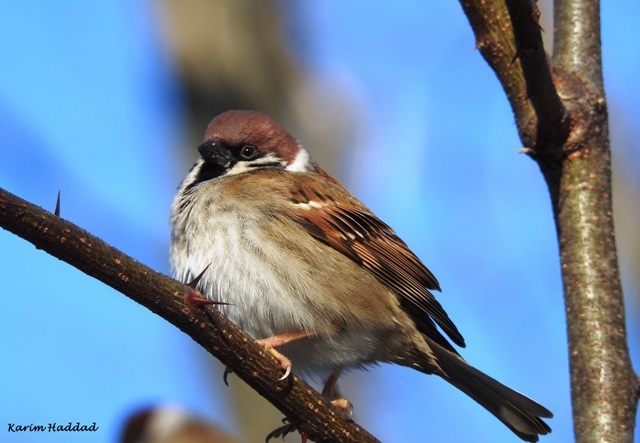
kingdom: Animalia
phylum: Chordata
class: Aves
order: Passeriformes
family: Passeridae
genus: Passer
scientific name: Passer montanus
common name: Eurasian tree sparrow
